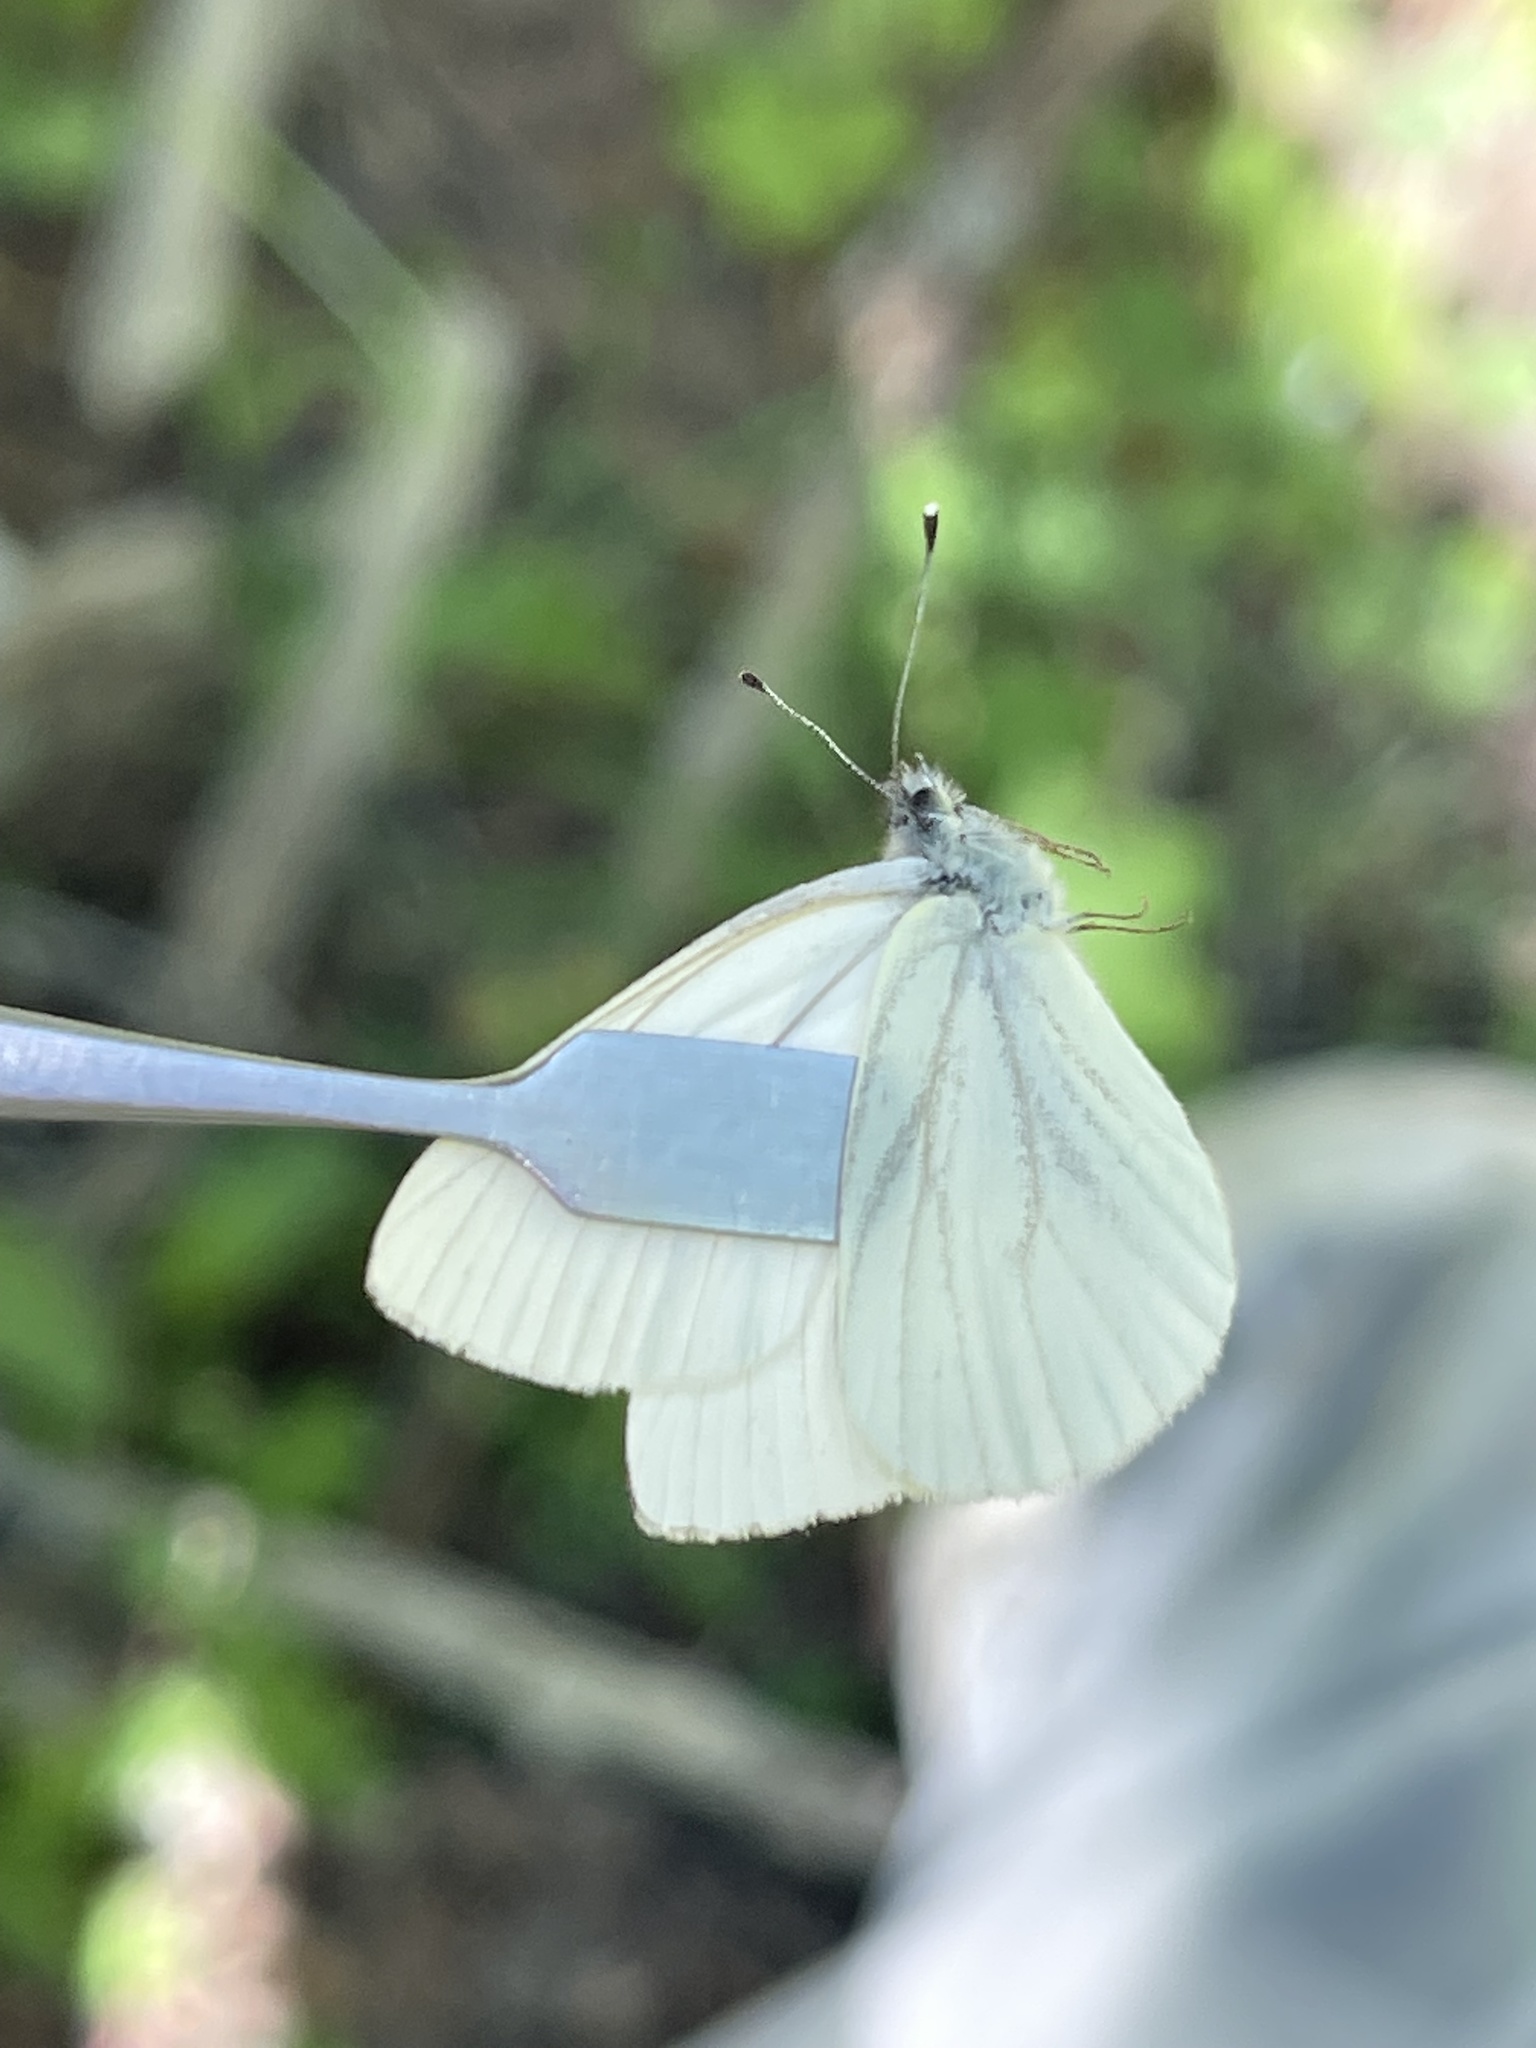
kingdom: Animalia
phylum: Arthropoda
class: Insecta
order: Lepidoptera
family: Pieridae
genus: Pieris
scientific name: Pieris marginalis
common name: Margined white
